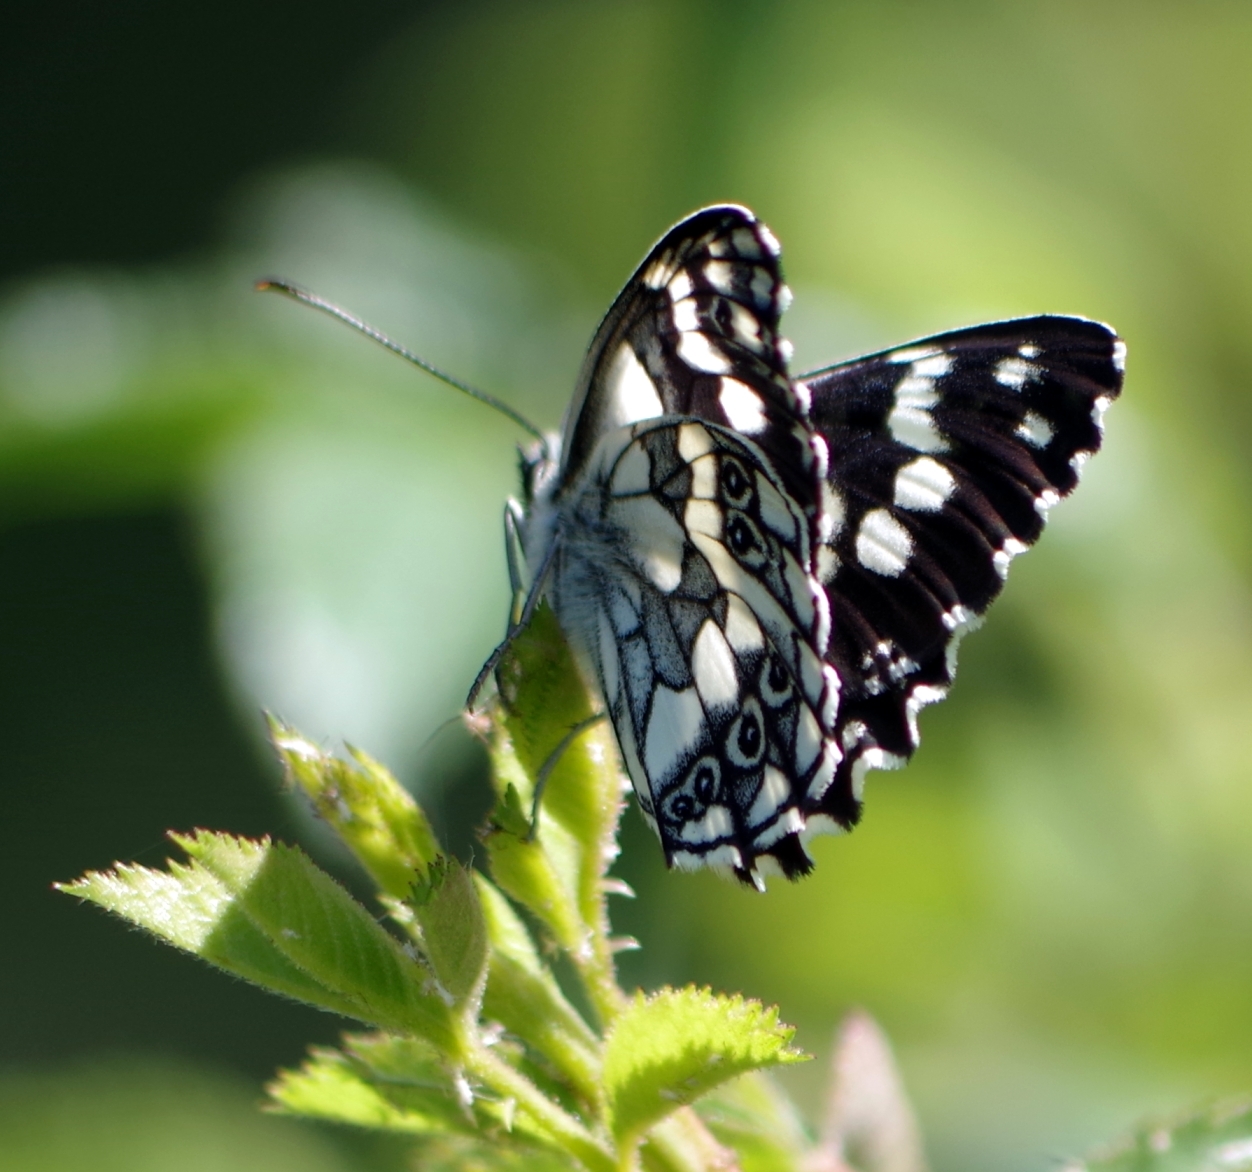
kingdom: Animalia
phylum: Arthropoda
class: Insecta
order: Lepidoptera
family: Nymphalidae
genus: Melanargia
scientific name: Melanargia galathea
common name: Marbled white
